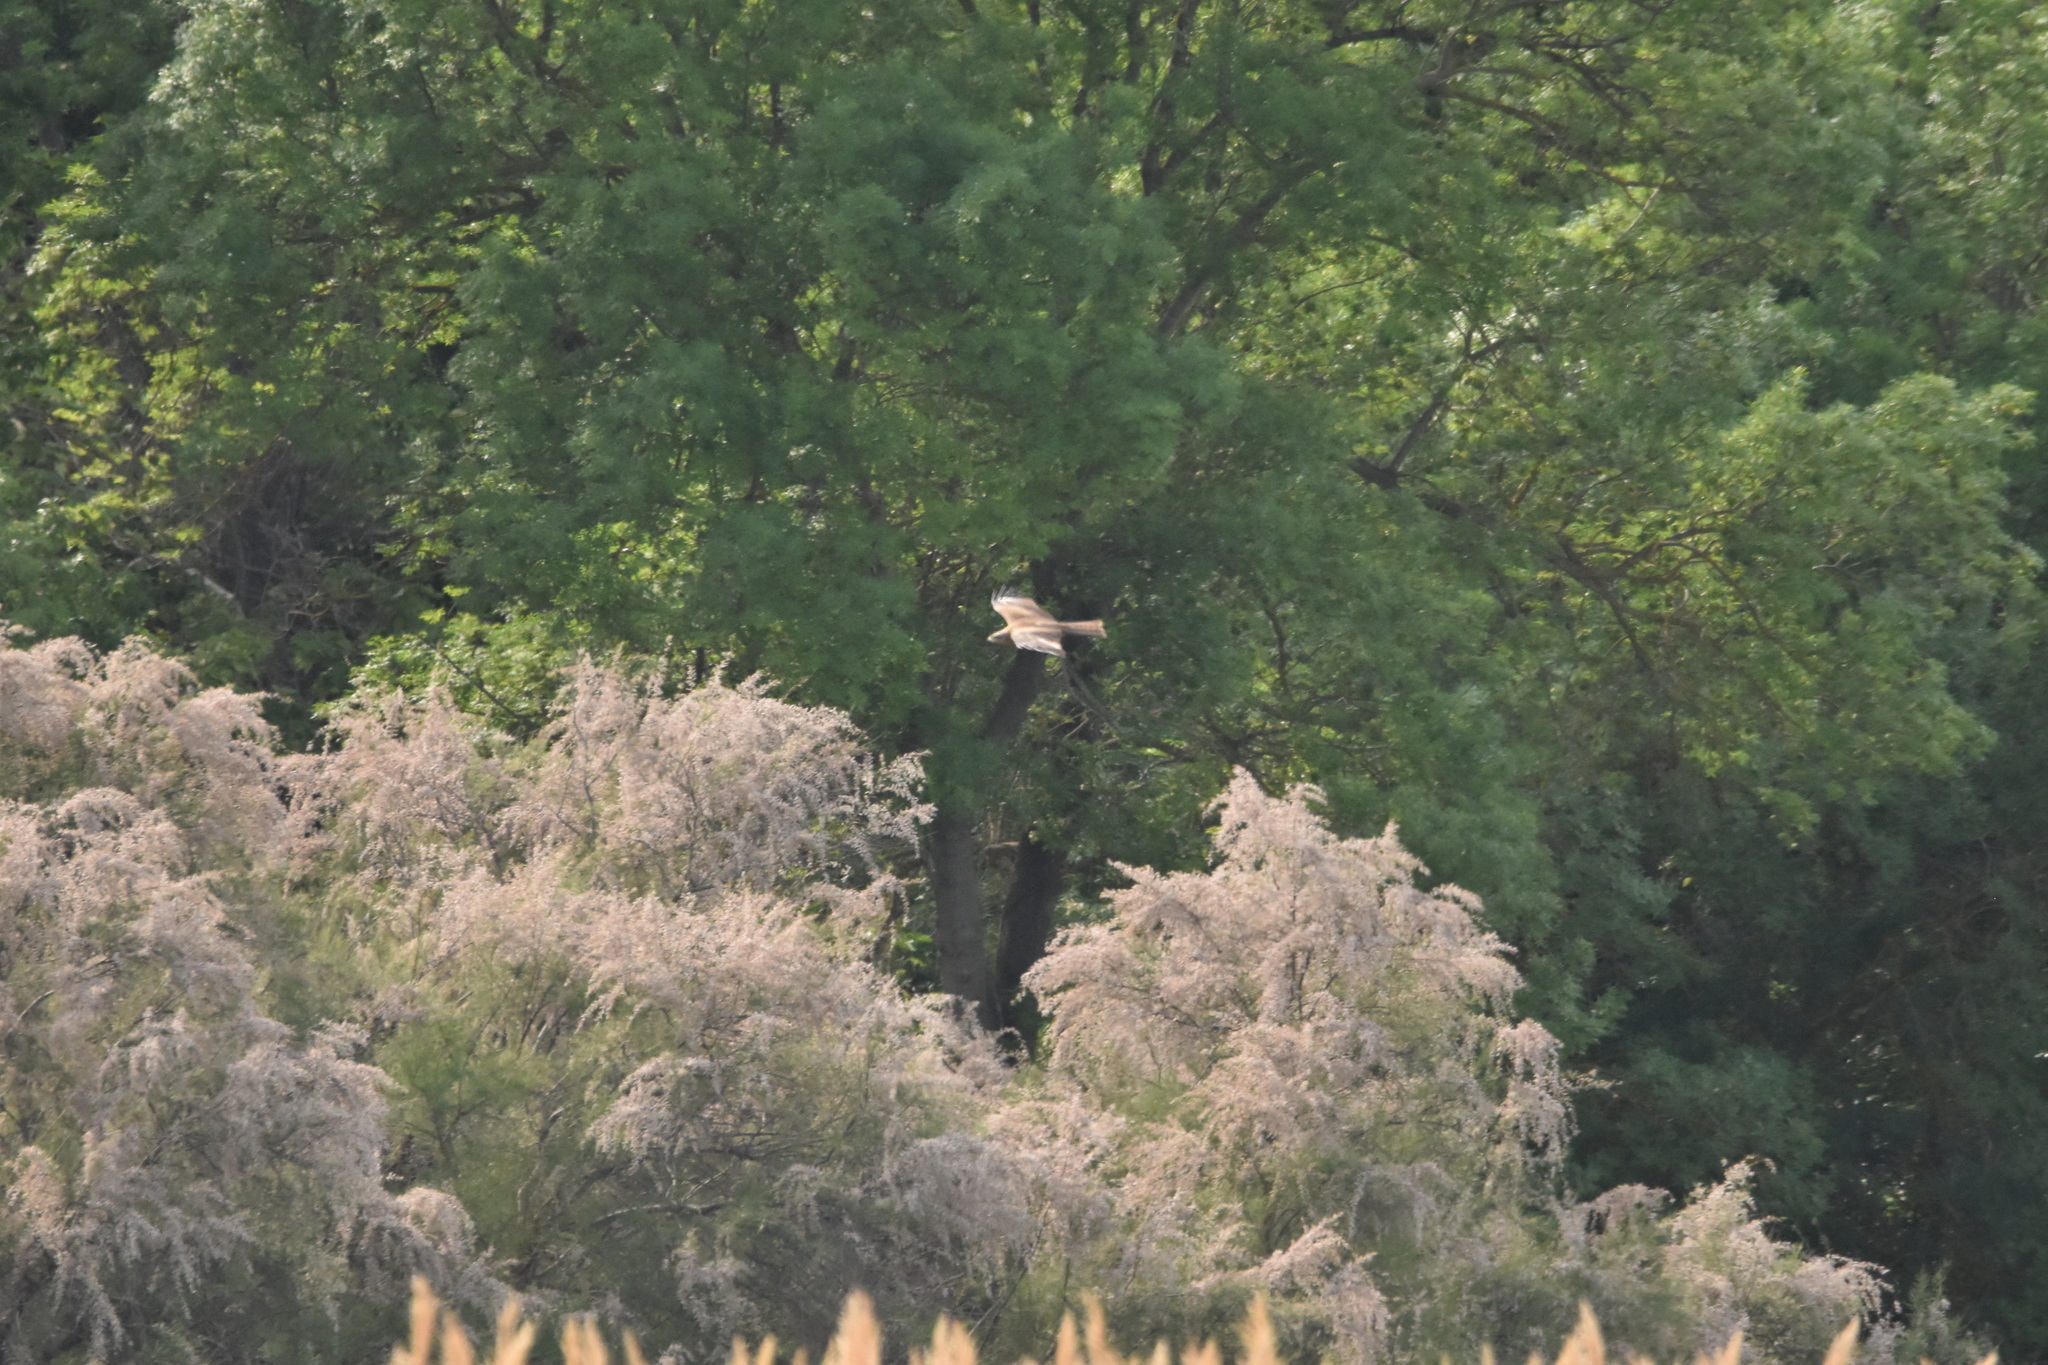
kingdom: Animalia
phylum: Chordata
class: Aves
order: Accipitriformes
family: Accipitridae
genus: Milvus
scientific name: Milvus migrans
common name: Black kite
